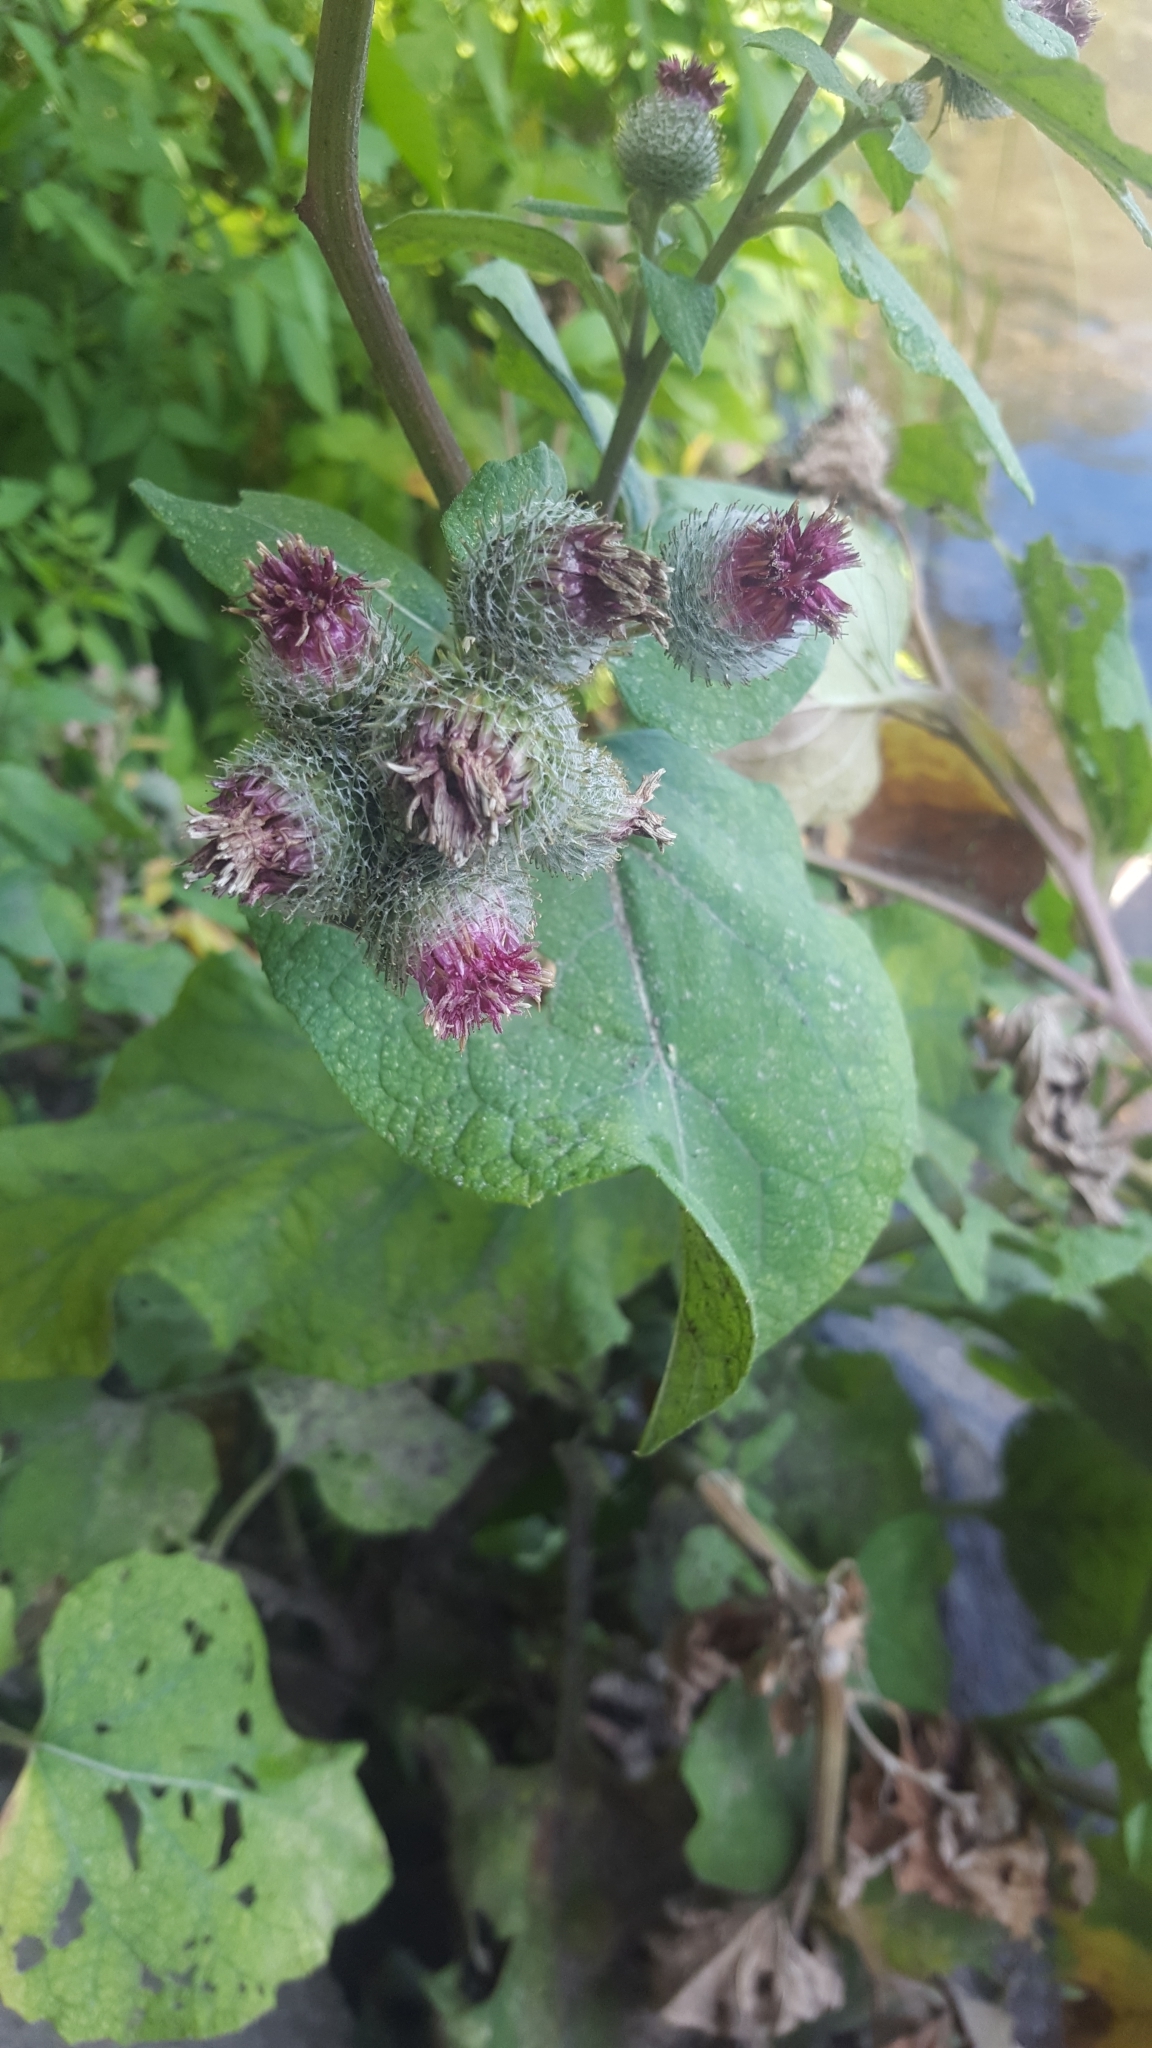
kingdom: Plantae
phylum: Tracheophyta
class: Magnoliopsida
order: Asterales
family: Asteraceae
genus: Arctium
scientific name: Arctium tomentosum
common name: Woolly burdock
